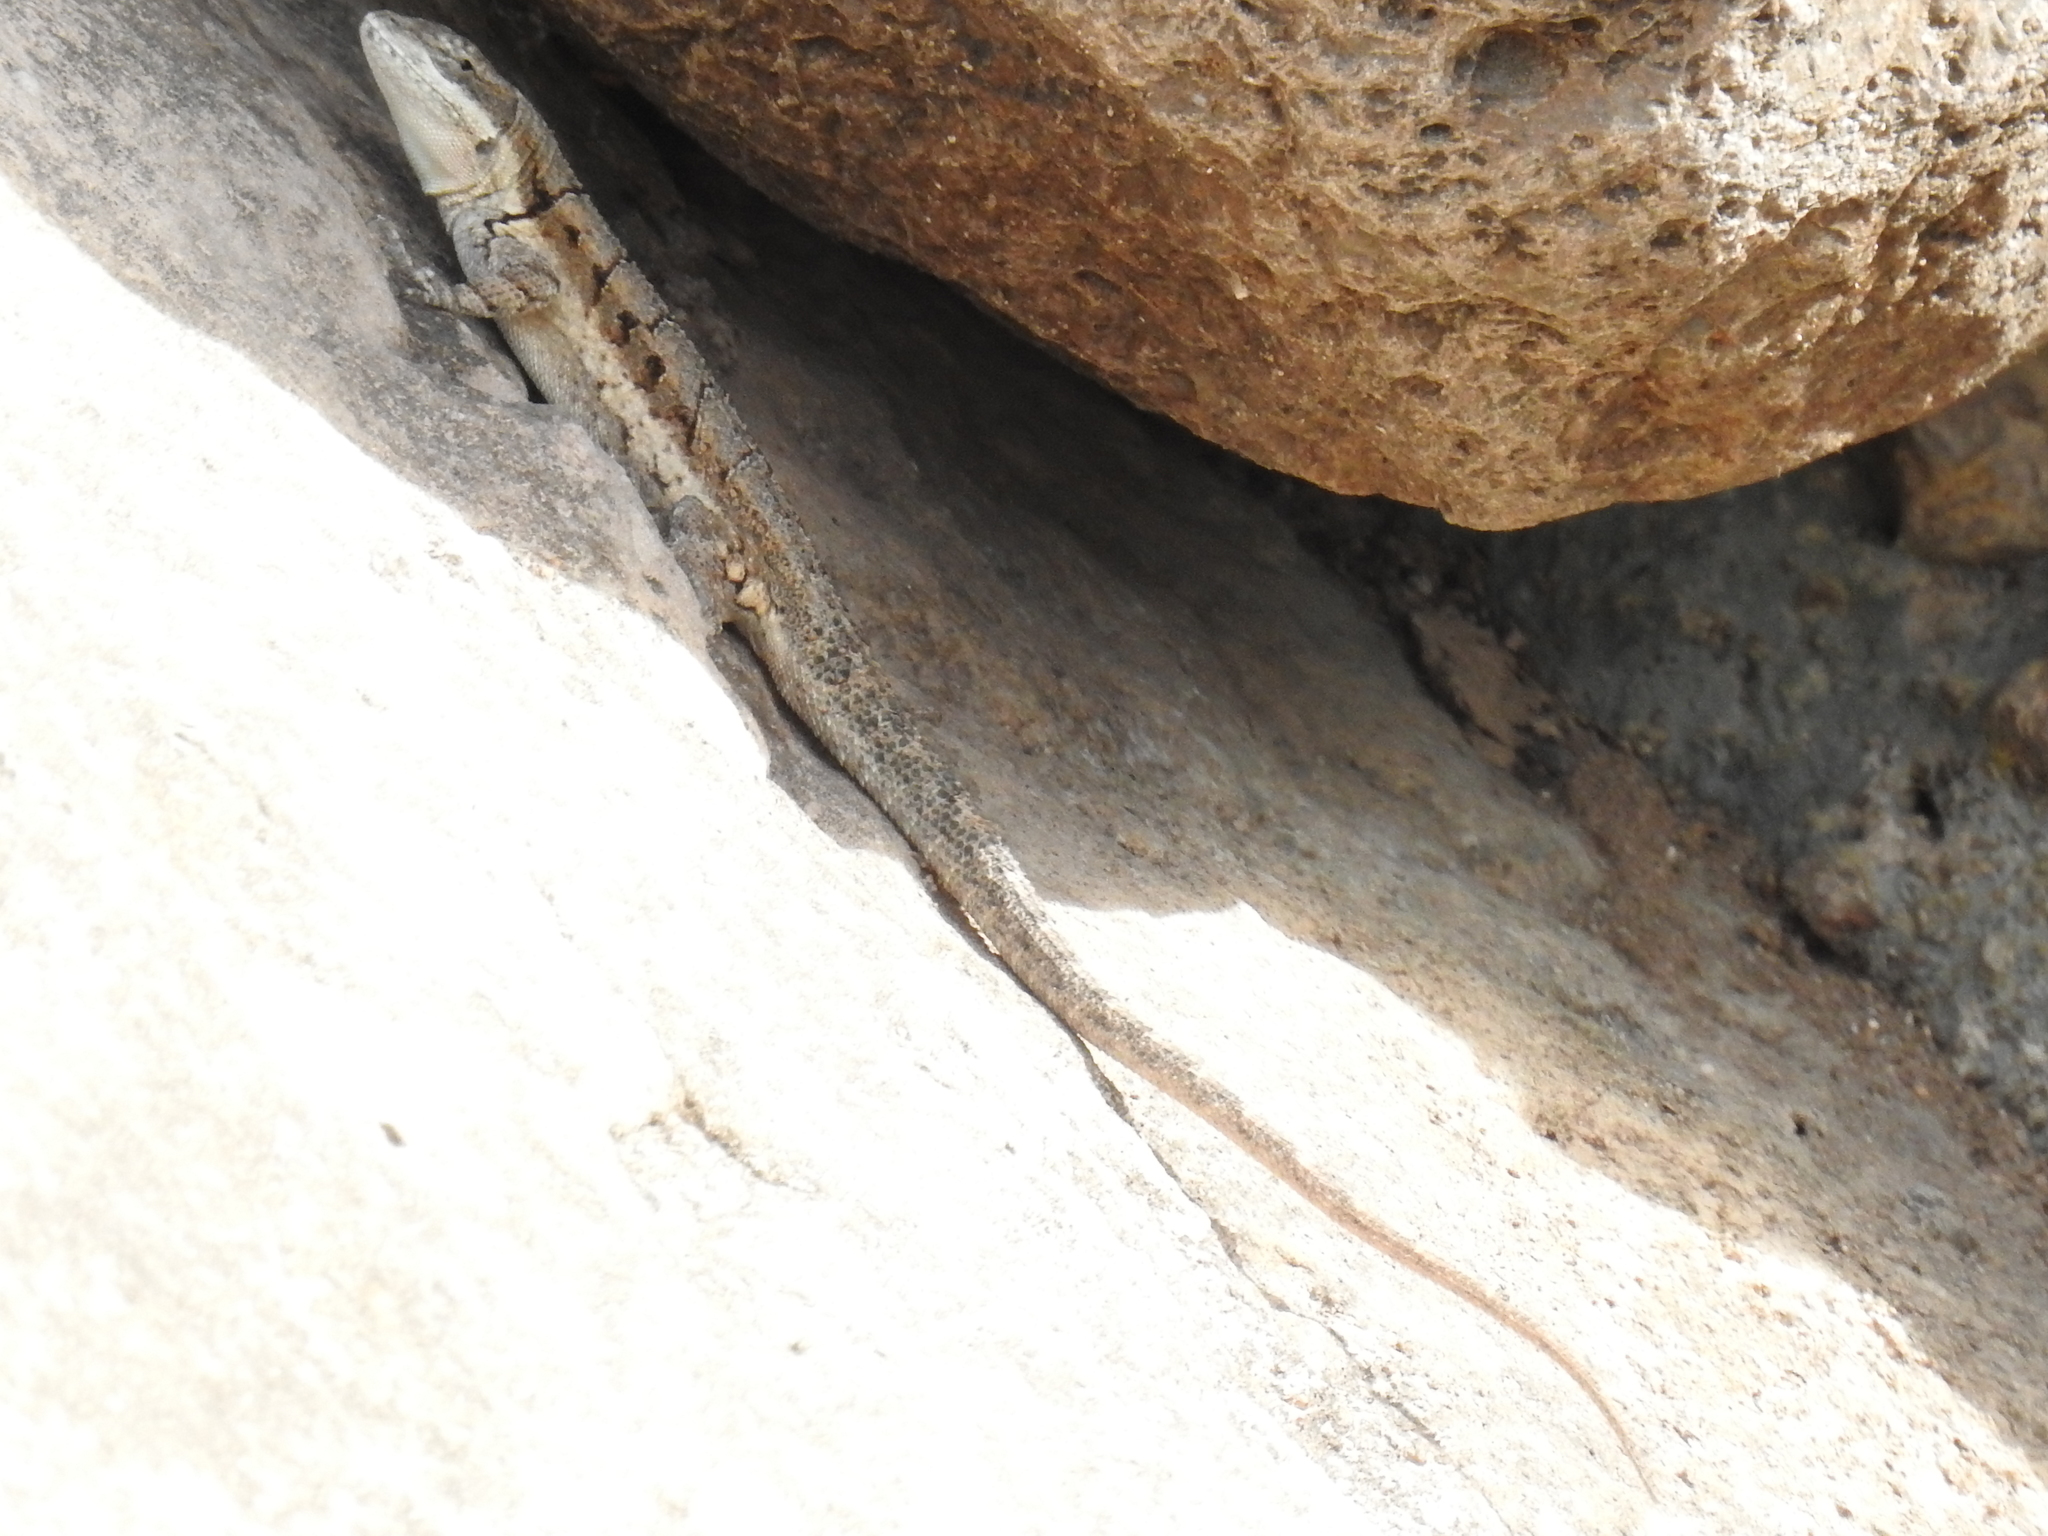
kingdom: Animalia
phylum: Chordata
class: Squamata
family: Phrynosomatidae
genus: Urosaurus
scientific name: Urosaurus ornatus
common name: Ornate tree lizard
